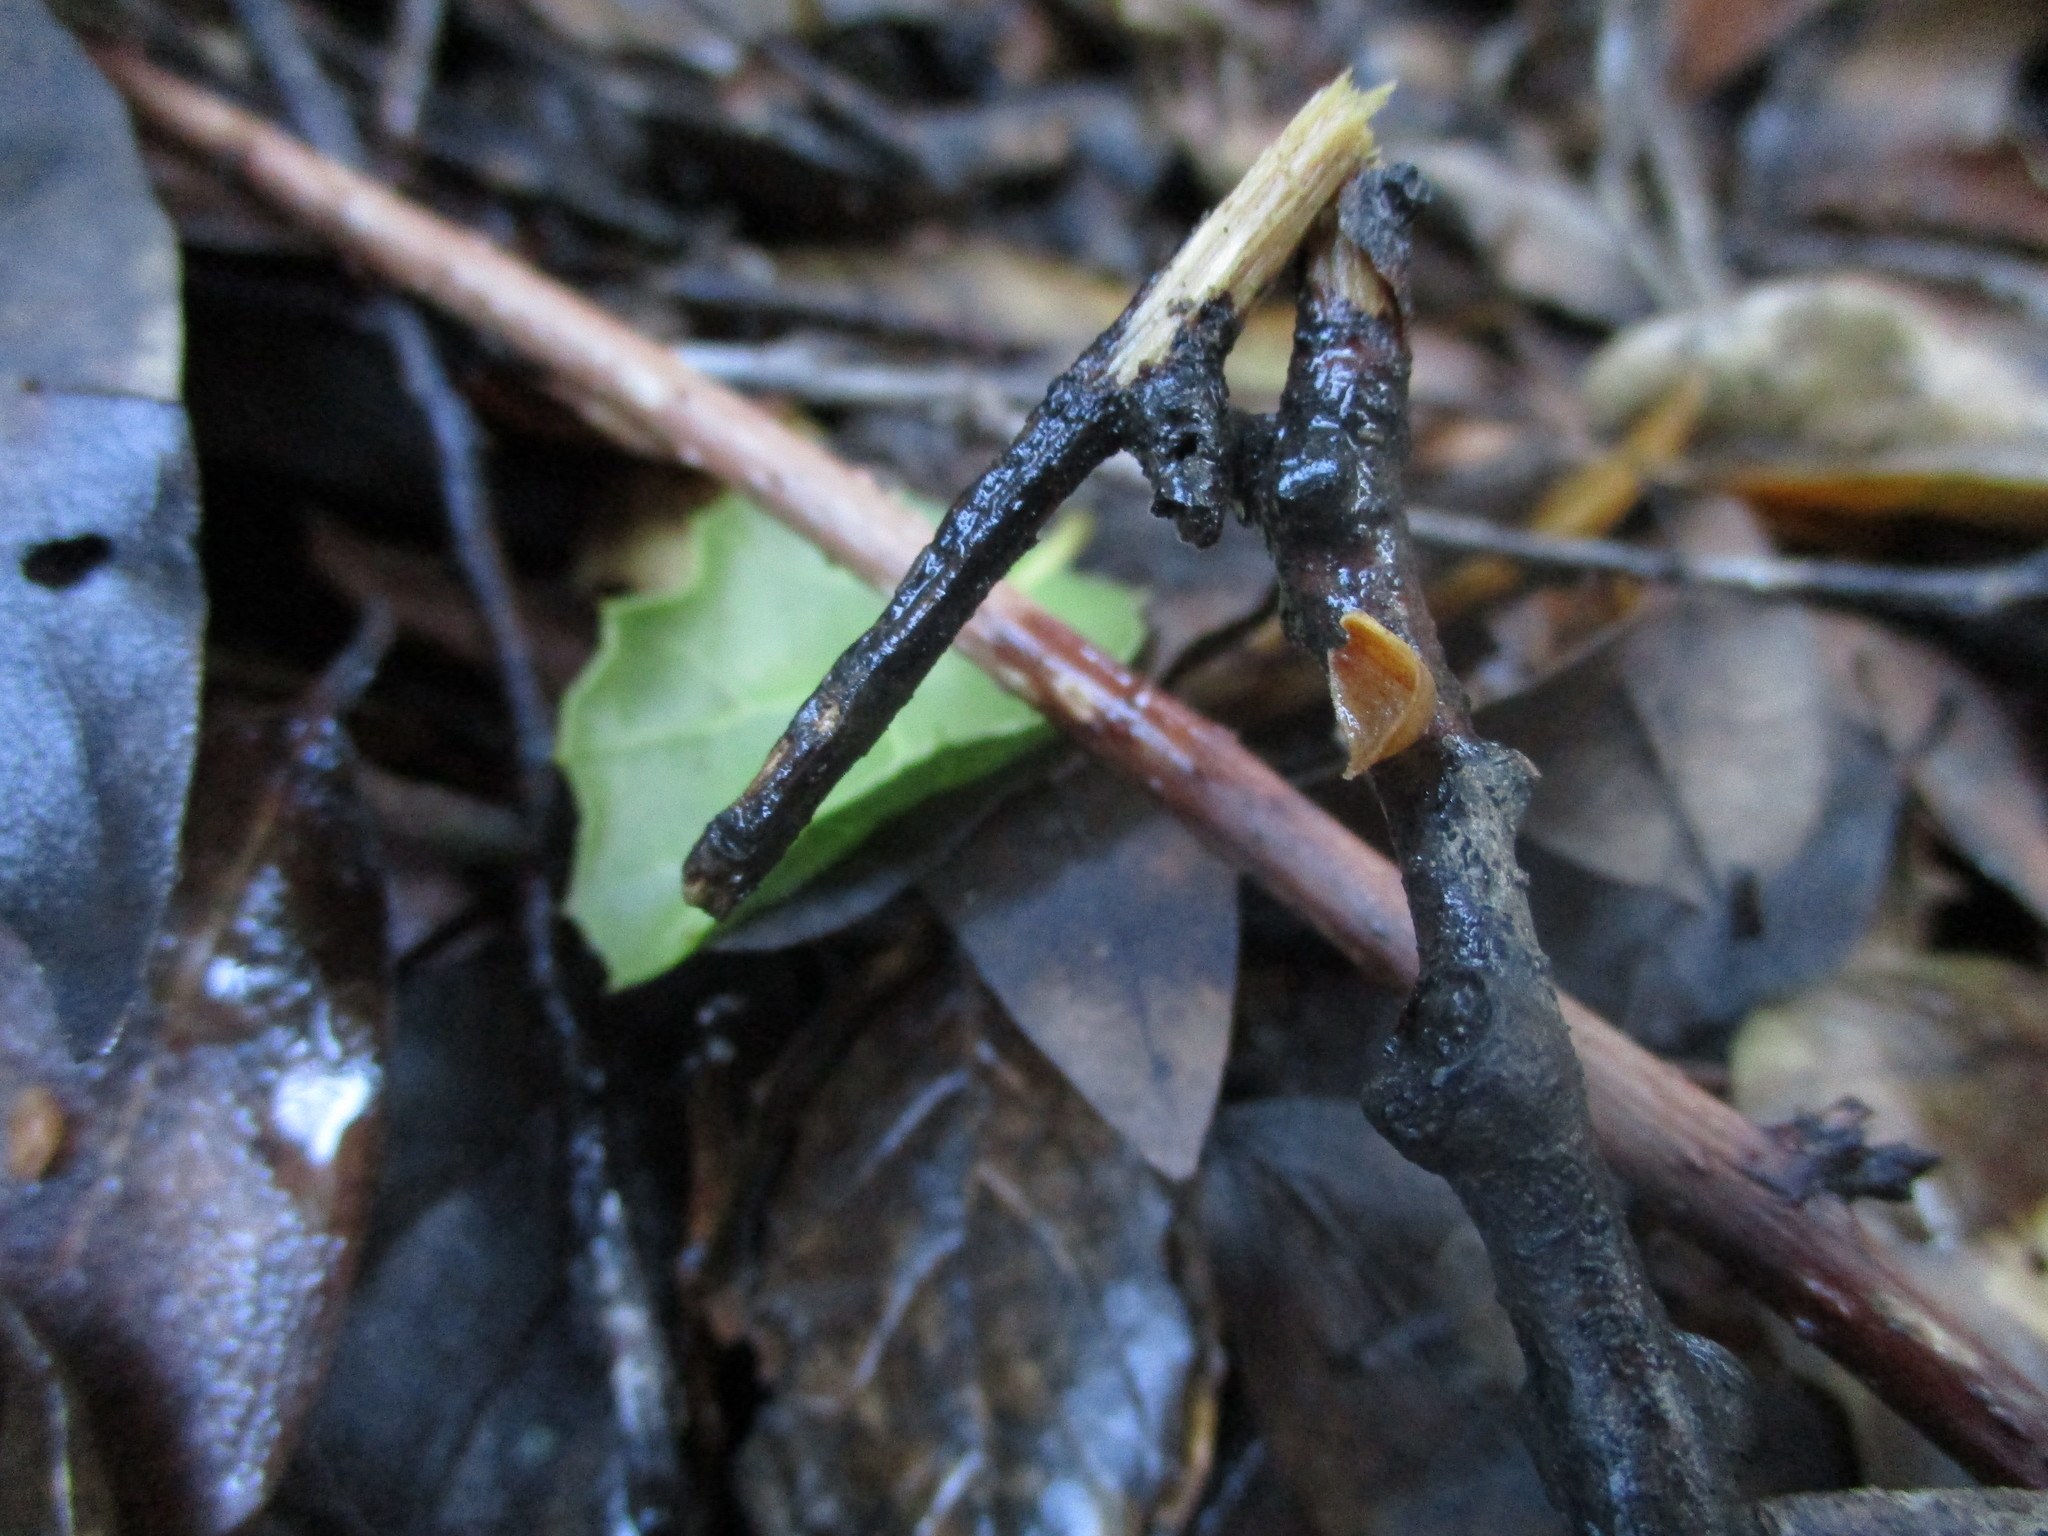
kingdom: Fungi
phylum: Ascomycota
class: Pezizomycetes
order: Pezizales
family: Sarcoscyphaceae
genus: Sarcoscypha
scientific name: Sarcoscypha coccinea
